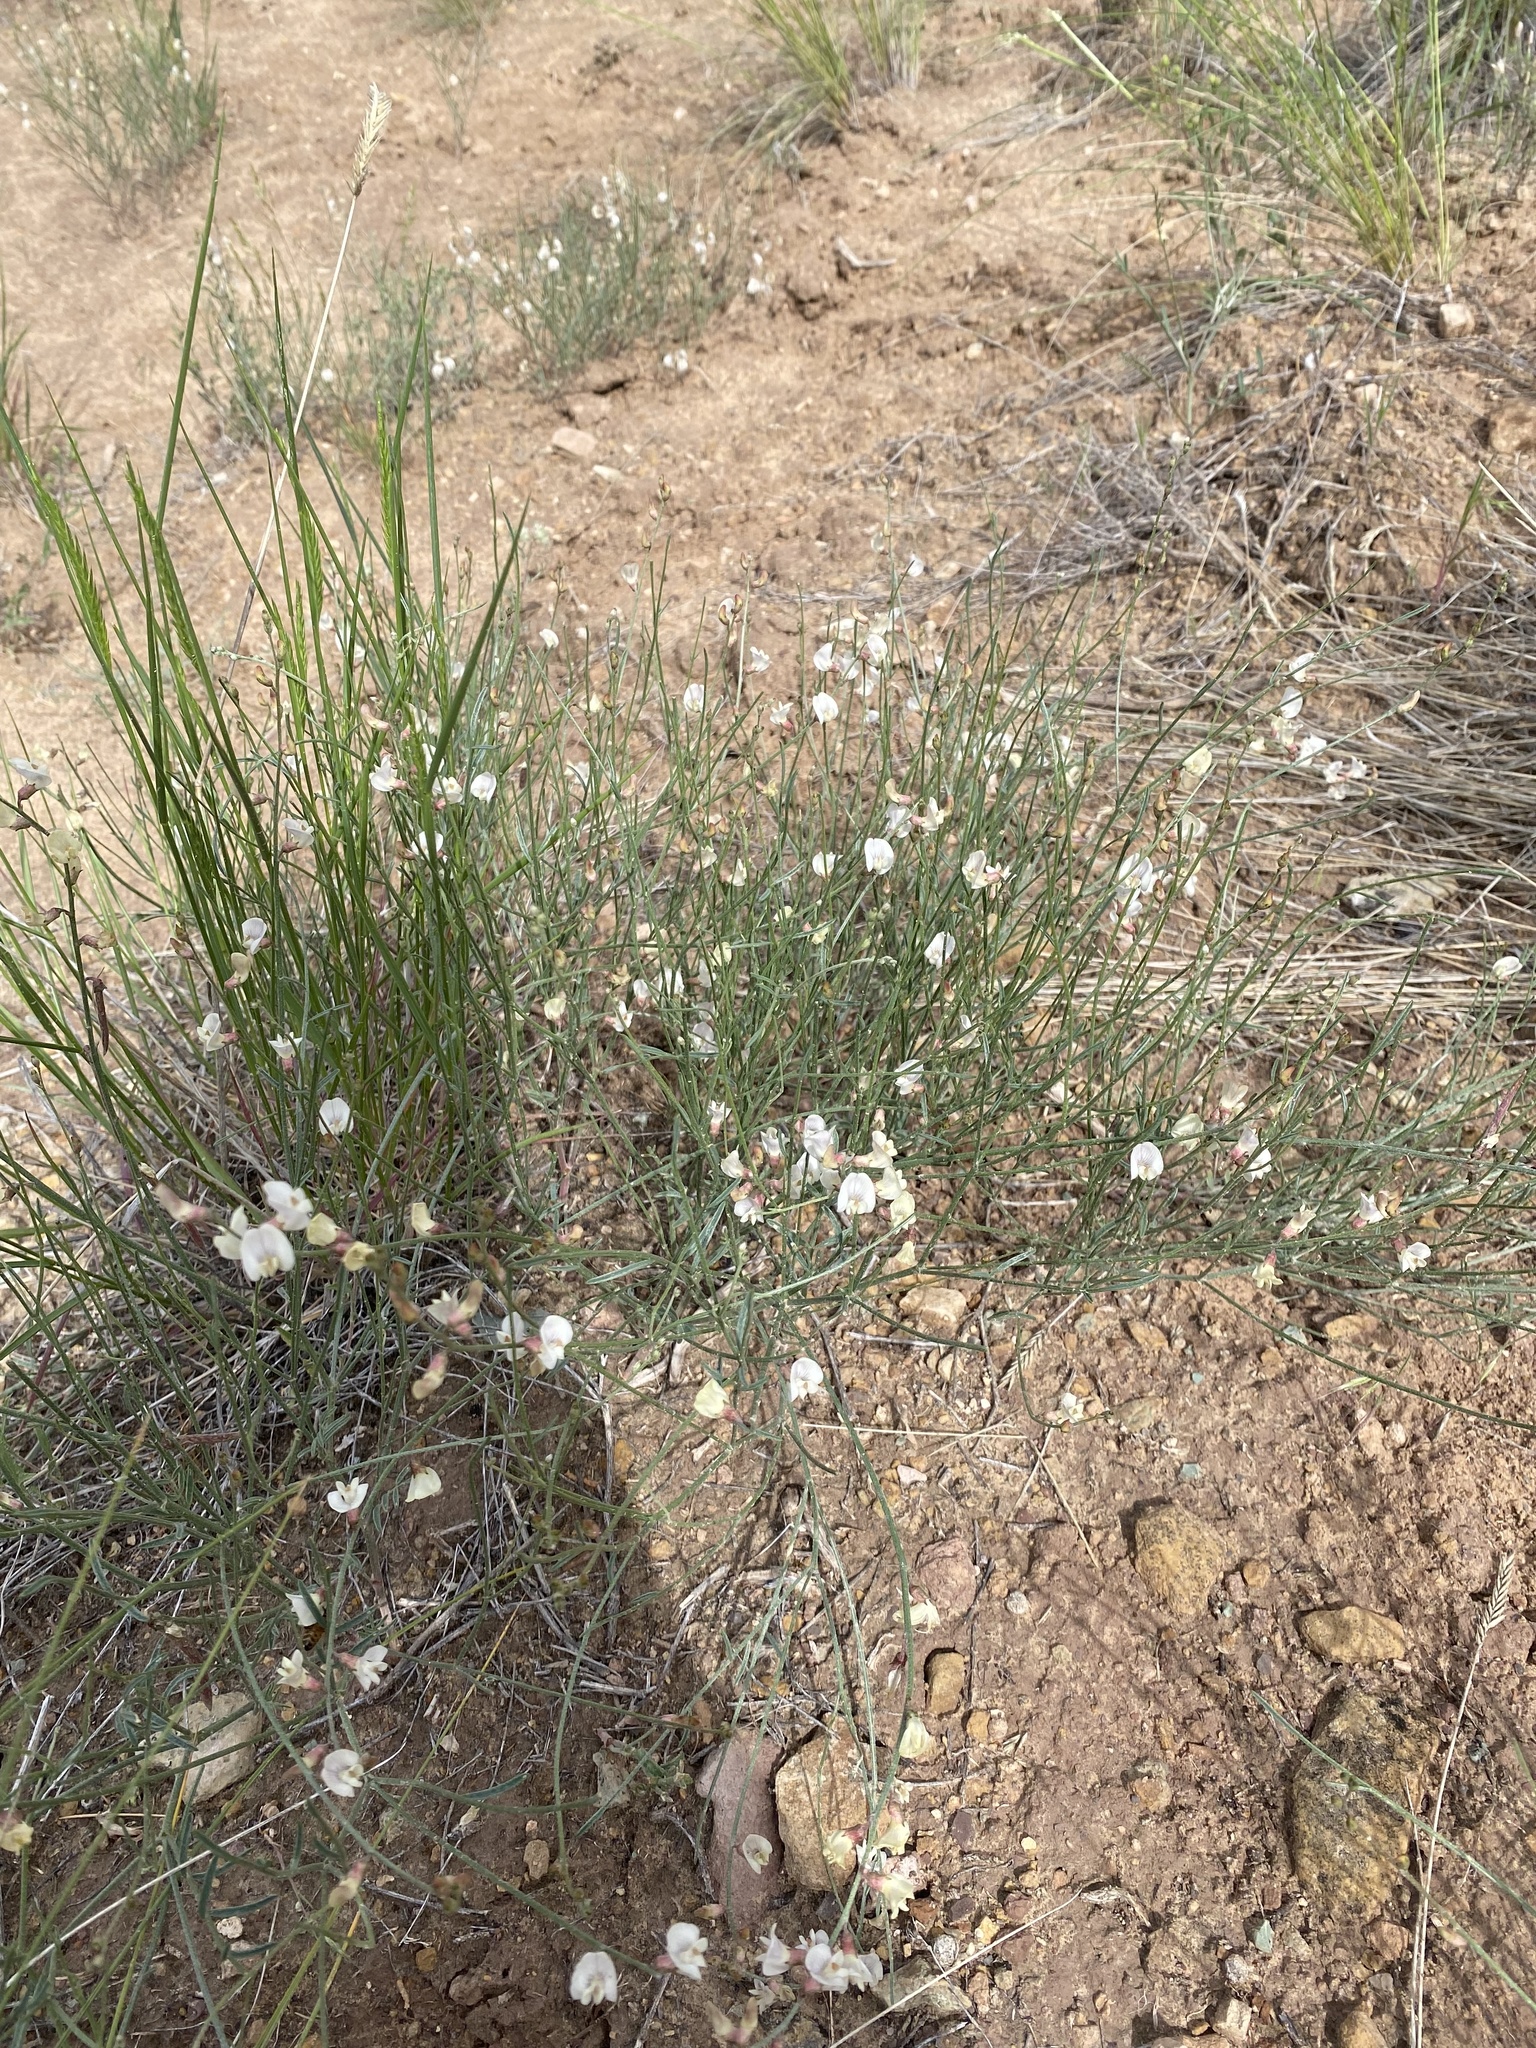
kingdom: Plantae
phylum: Tracheophyta
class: Magnoliopsida
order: Fabales
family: Fabaceae
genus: Astragalus
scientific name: Astragalus ceramicus
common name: Painted milk-vetch
